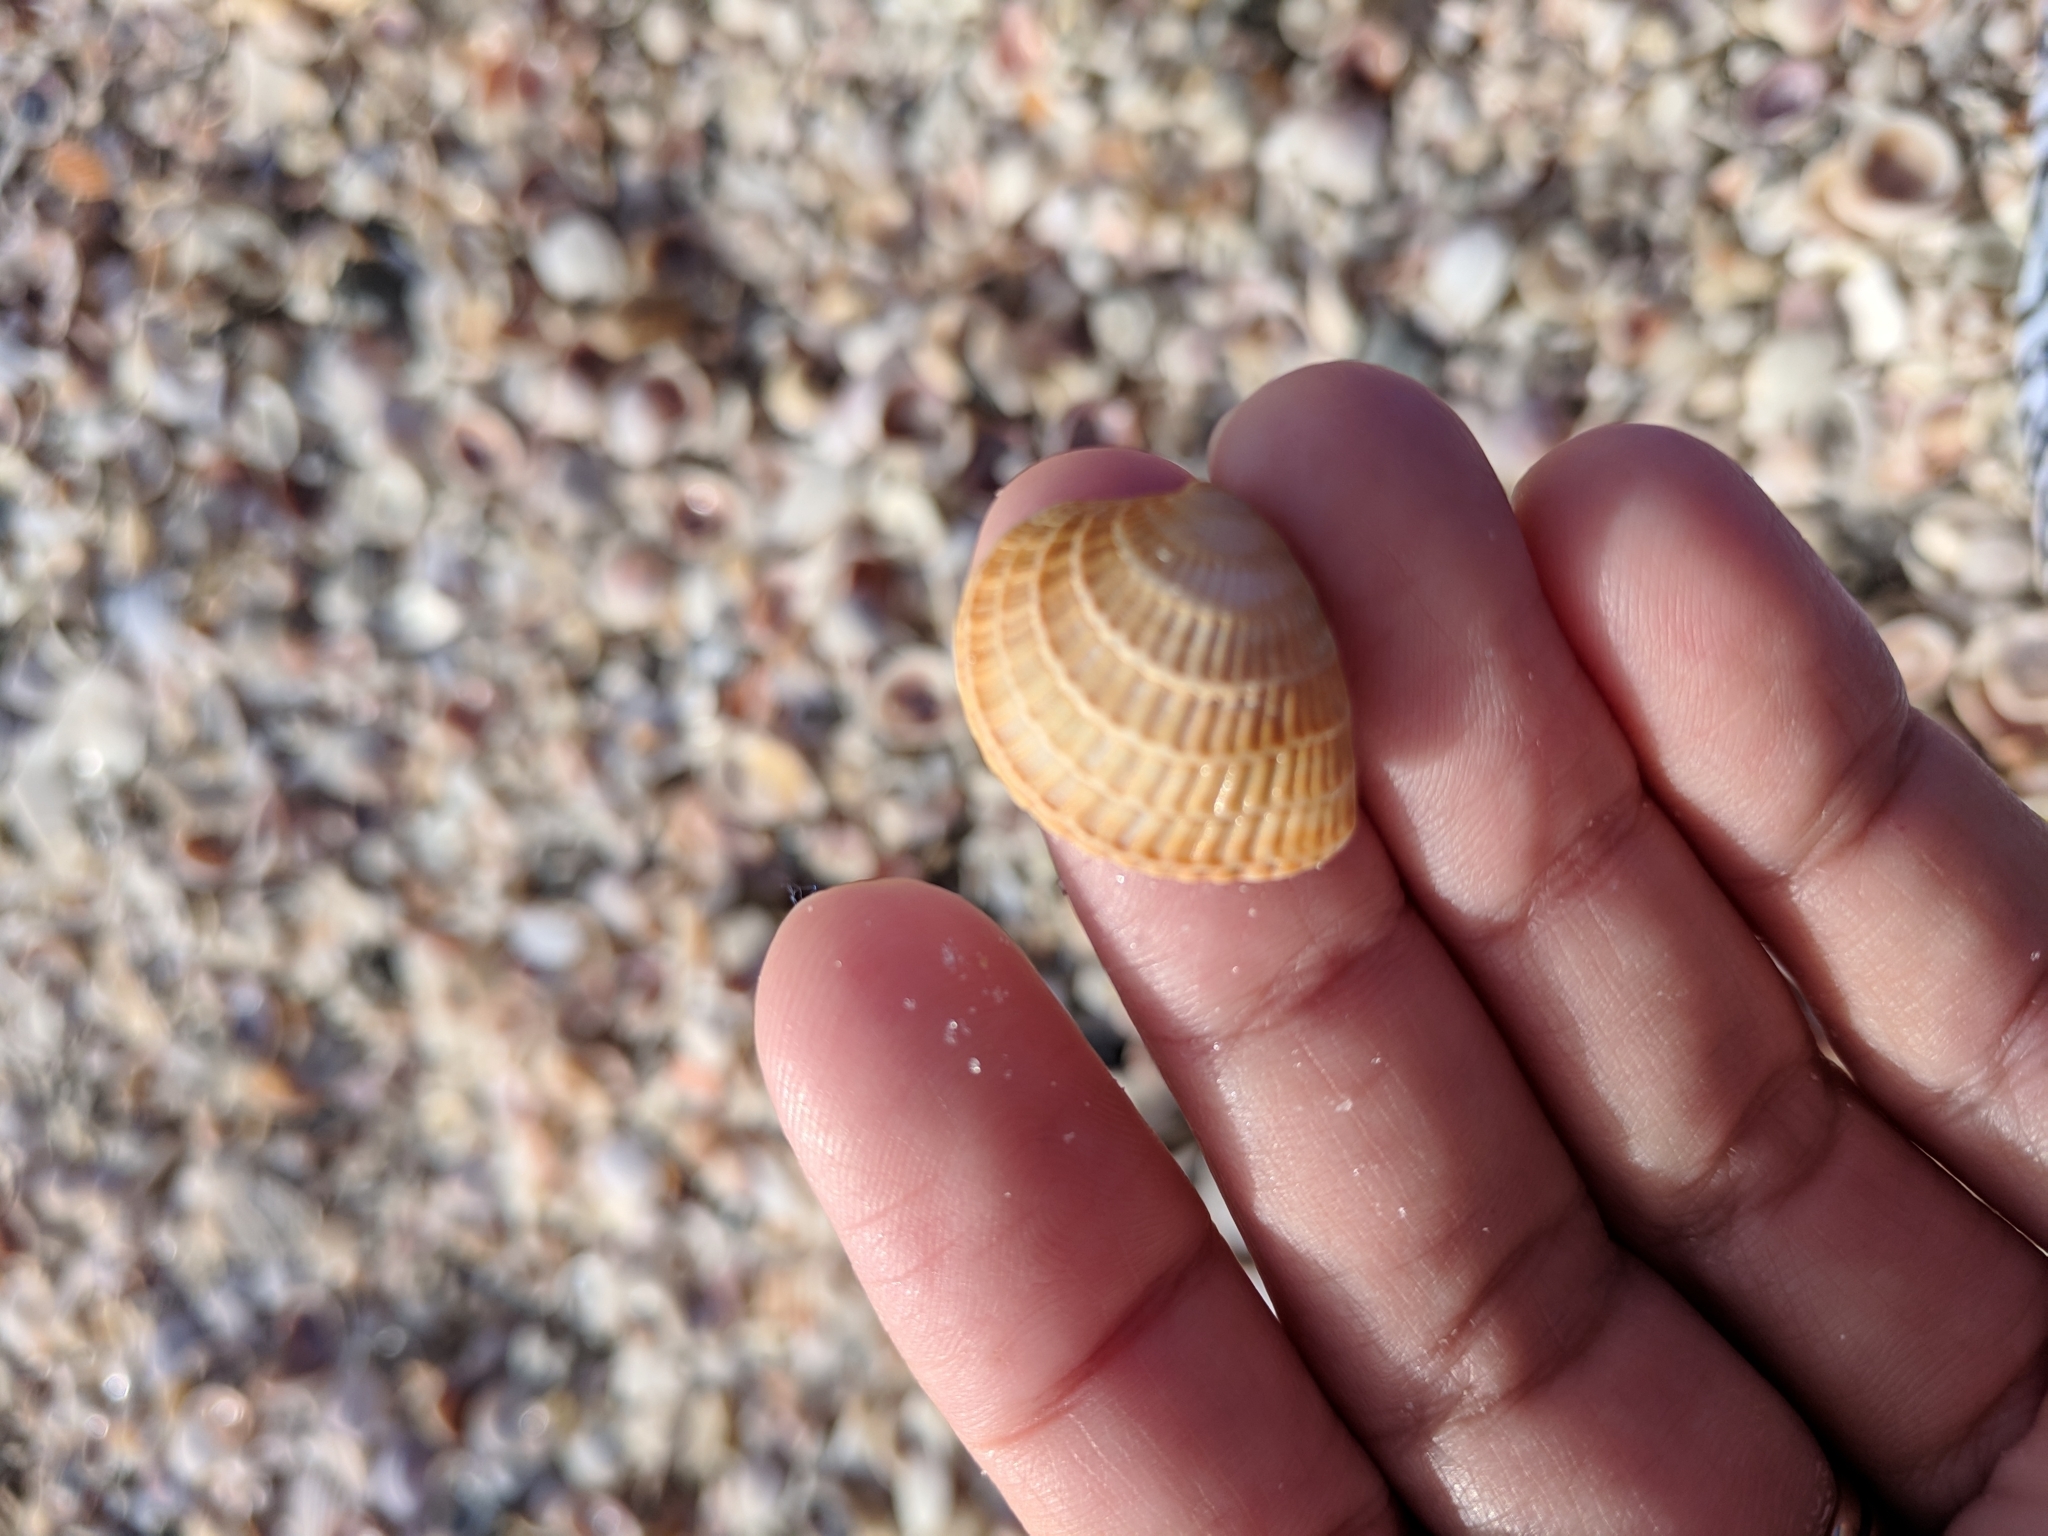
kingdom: Animalia
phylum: Mollusca
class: Bivalvia
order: Venerida
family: Veneridae
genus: Chione
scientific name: Chione elevata
